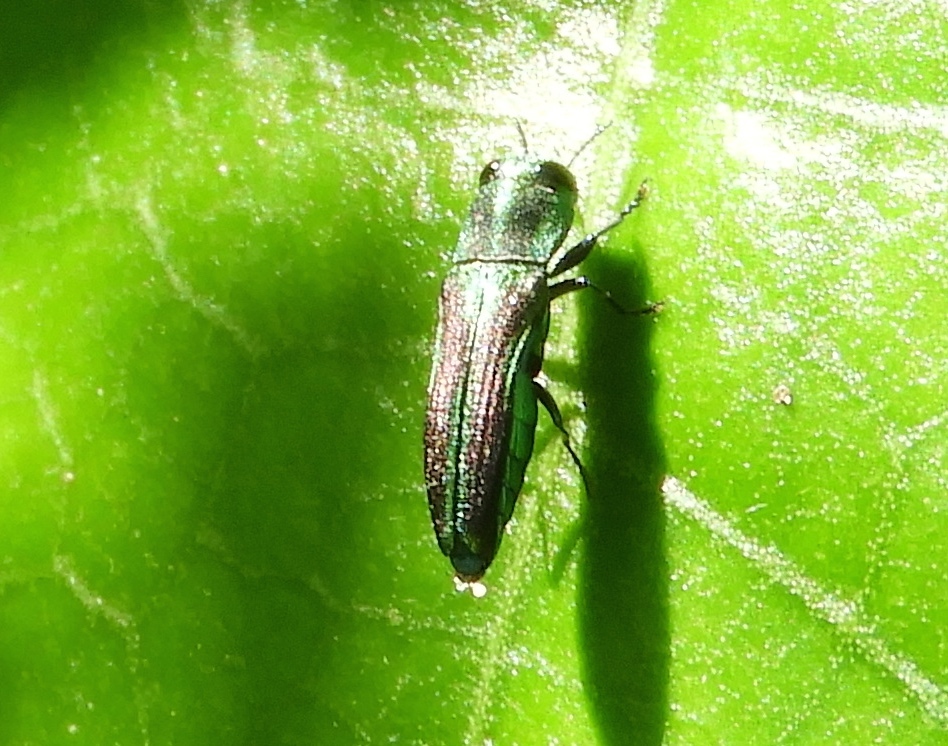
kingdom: Animalia
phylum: Arthropoda
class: Insecta
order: Coleoptera
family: Buprestidae
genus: Agrilaxia
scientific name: Agrilaxia
